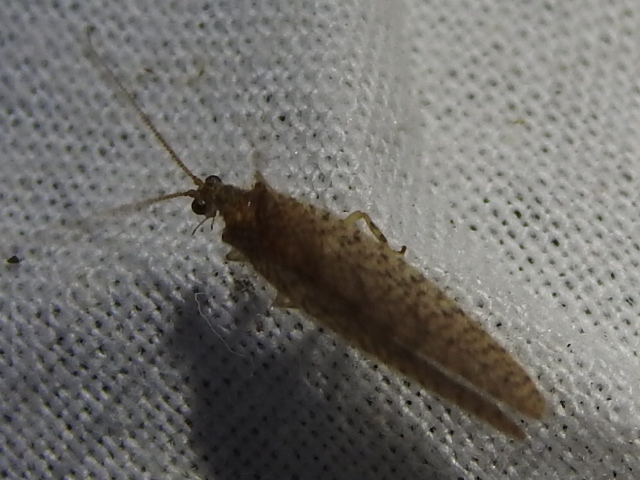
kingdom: Animalia
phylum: Arthropoda
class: Insecta
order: Neuroptera
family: Hemerobiidae
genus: Micromus
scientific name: Micromus posticus
